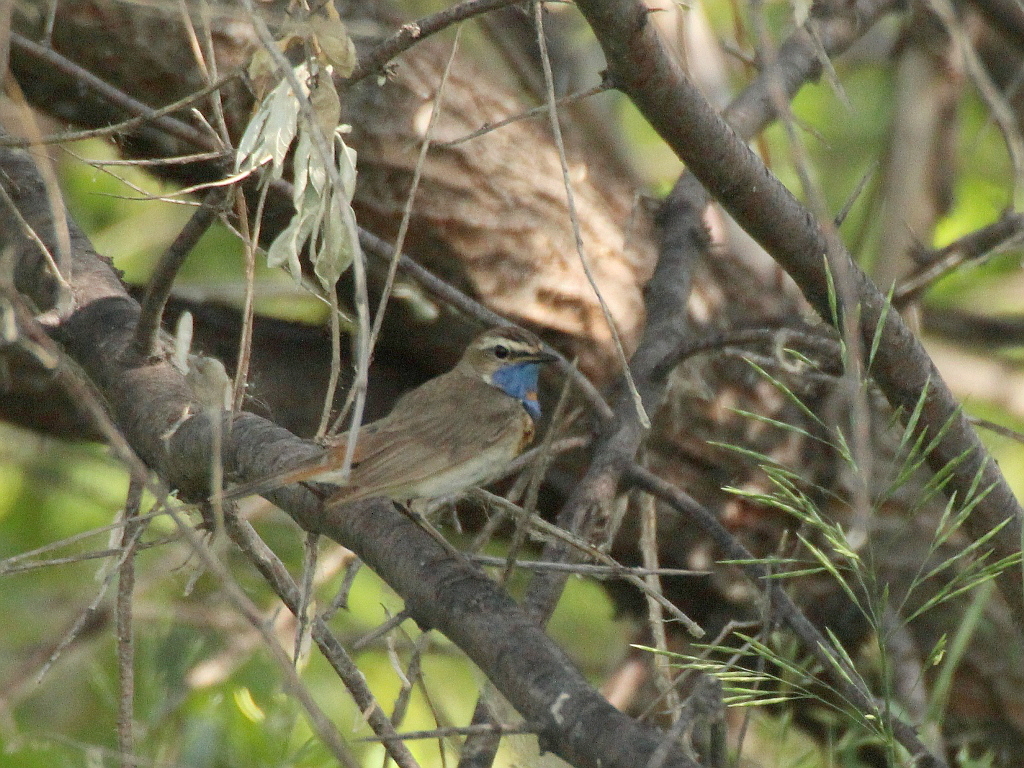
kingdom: Animalia
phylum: Chordata
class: Aves
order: Passeriformes
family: Muscicapidae
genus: Luscinia
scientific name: Luscinia svecica
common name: Bluethroat
